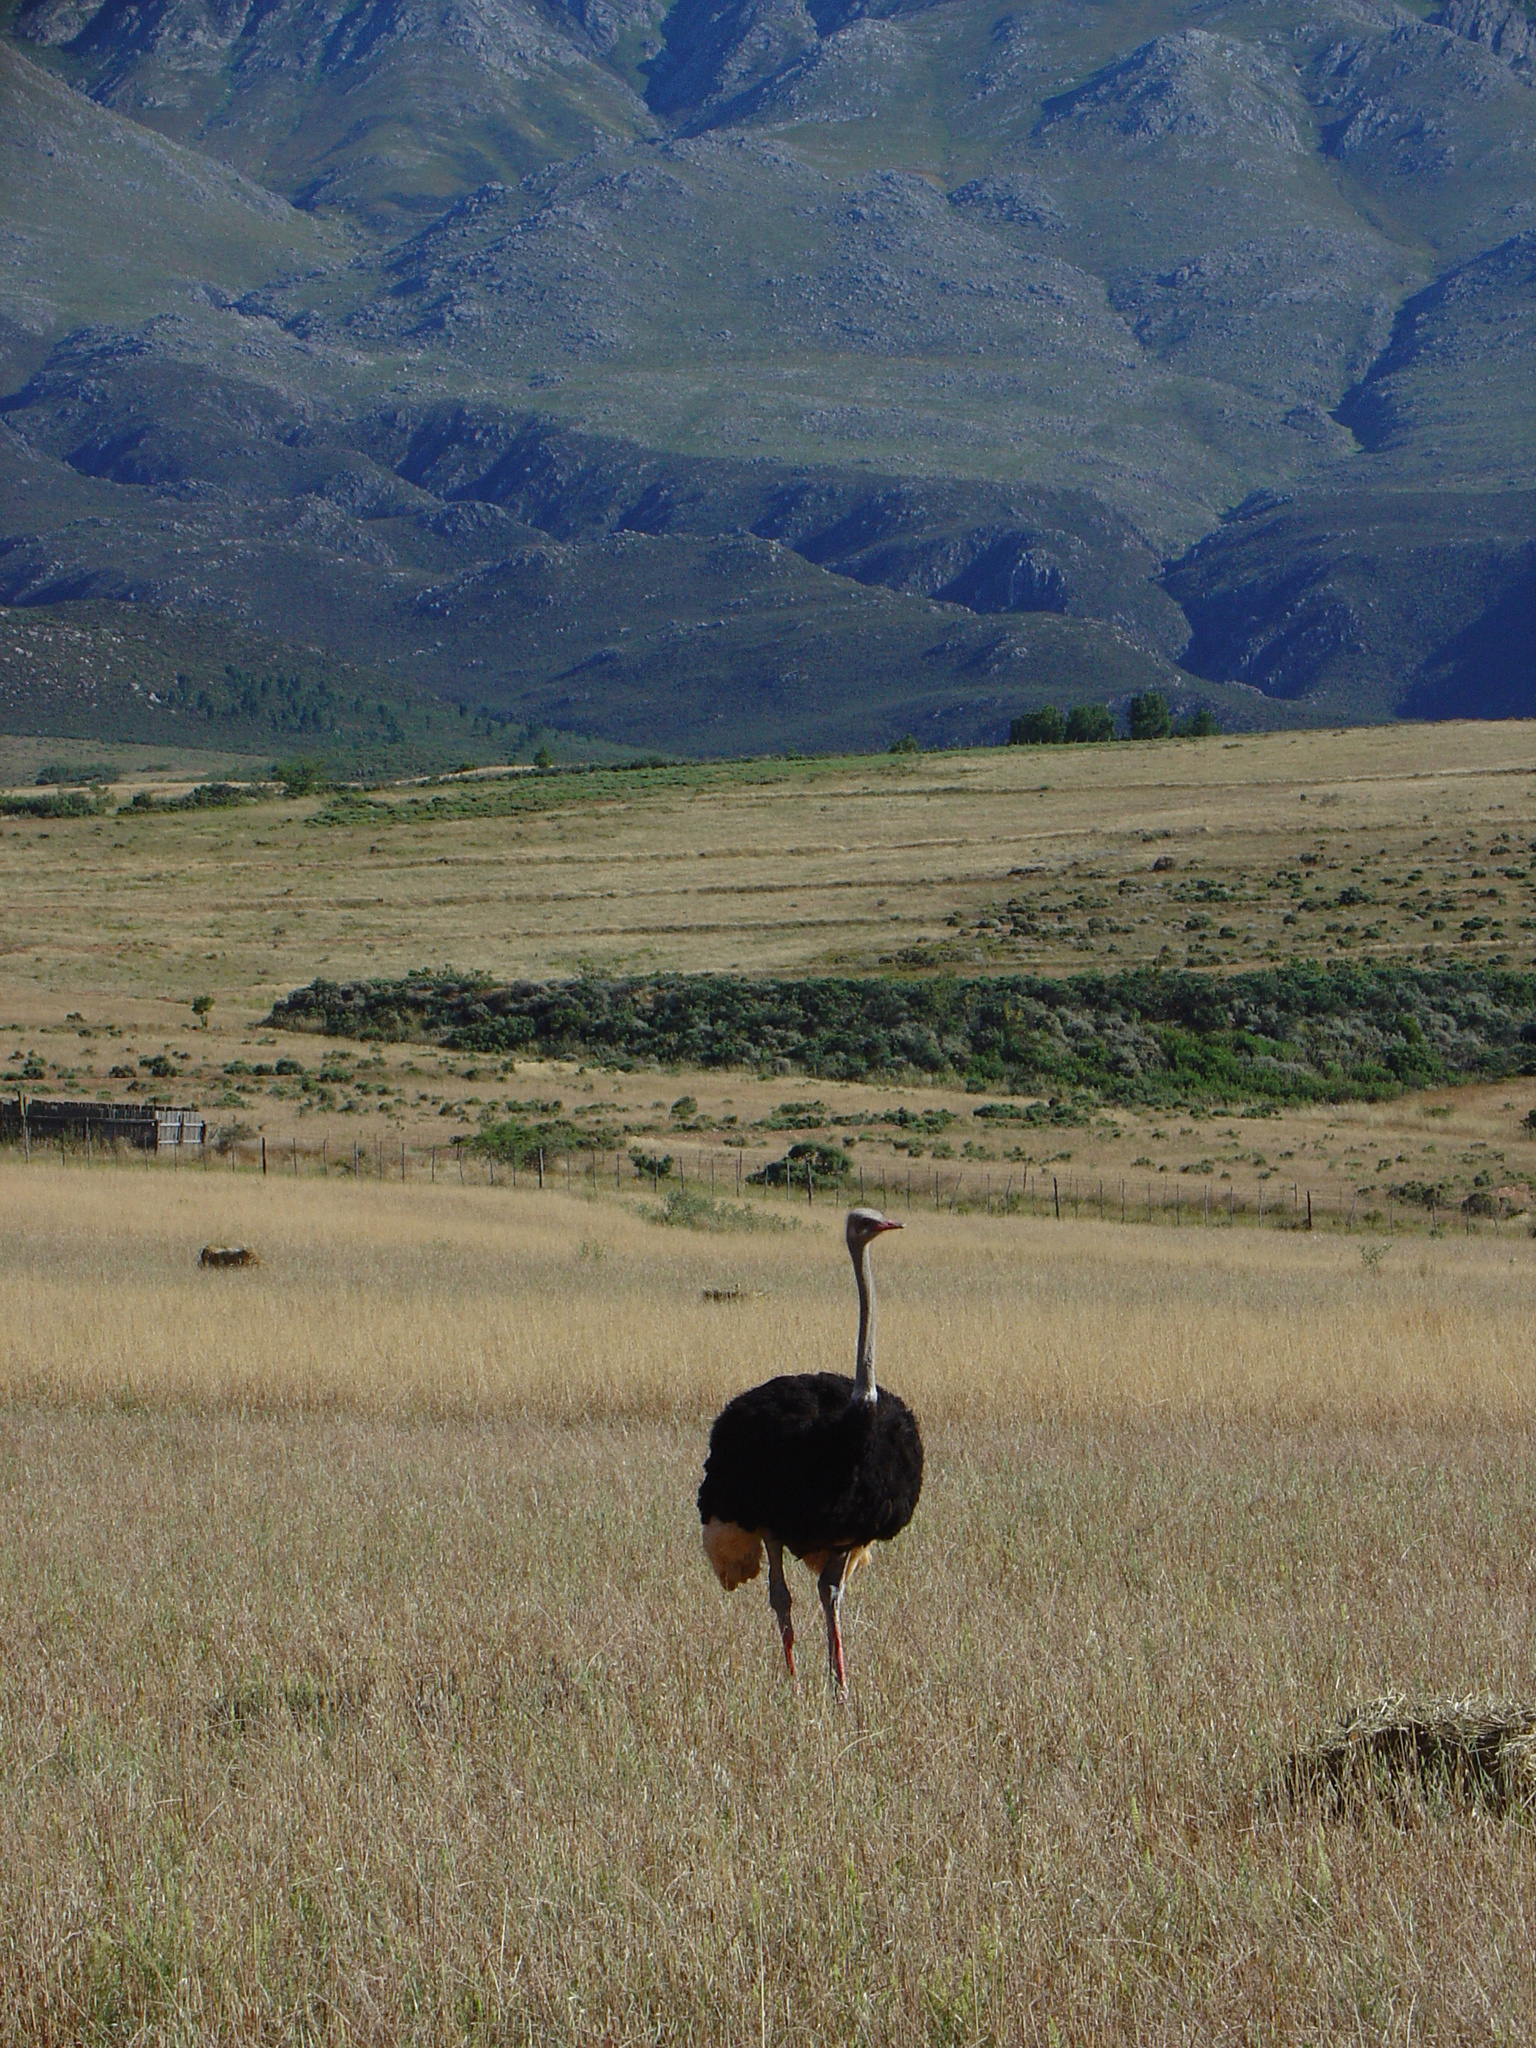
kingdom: Animalia
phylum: Chordata
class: Aves
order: Struthioniformes
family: Struthionidae
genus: Struthio
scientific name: Struthio camelus
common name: Common ostrich
